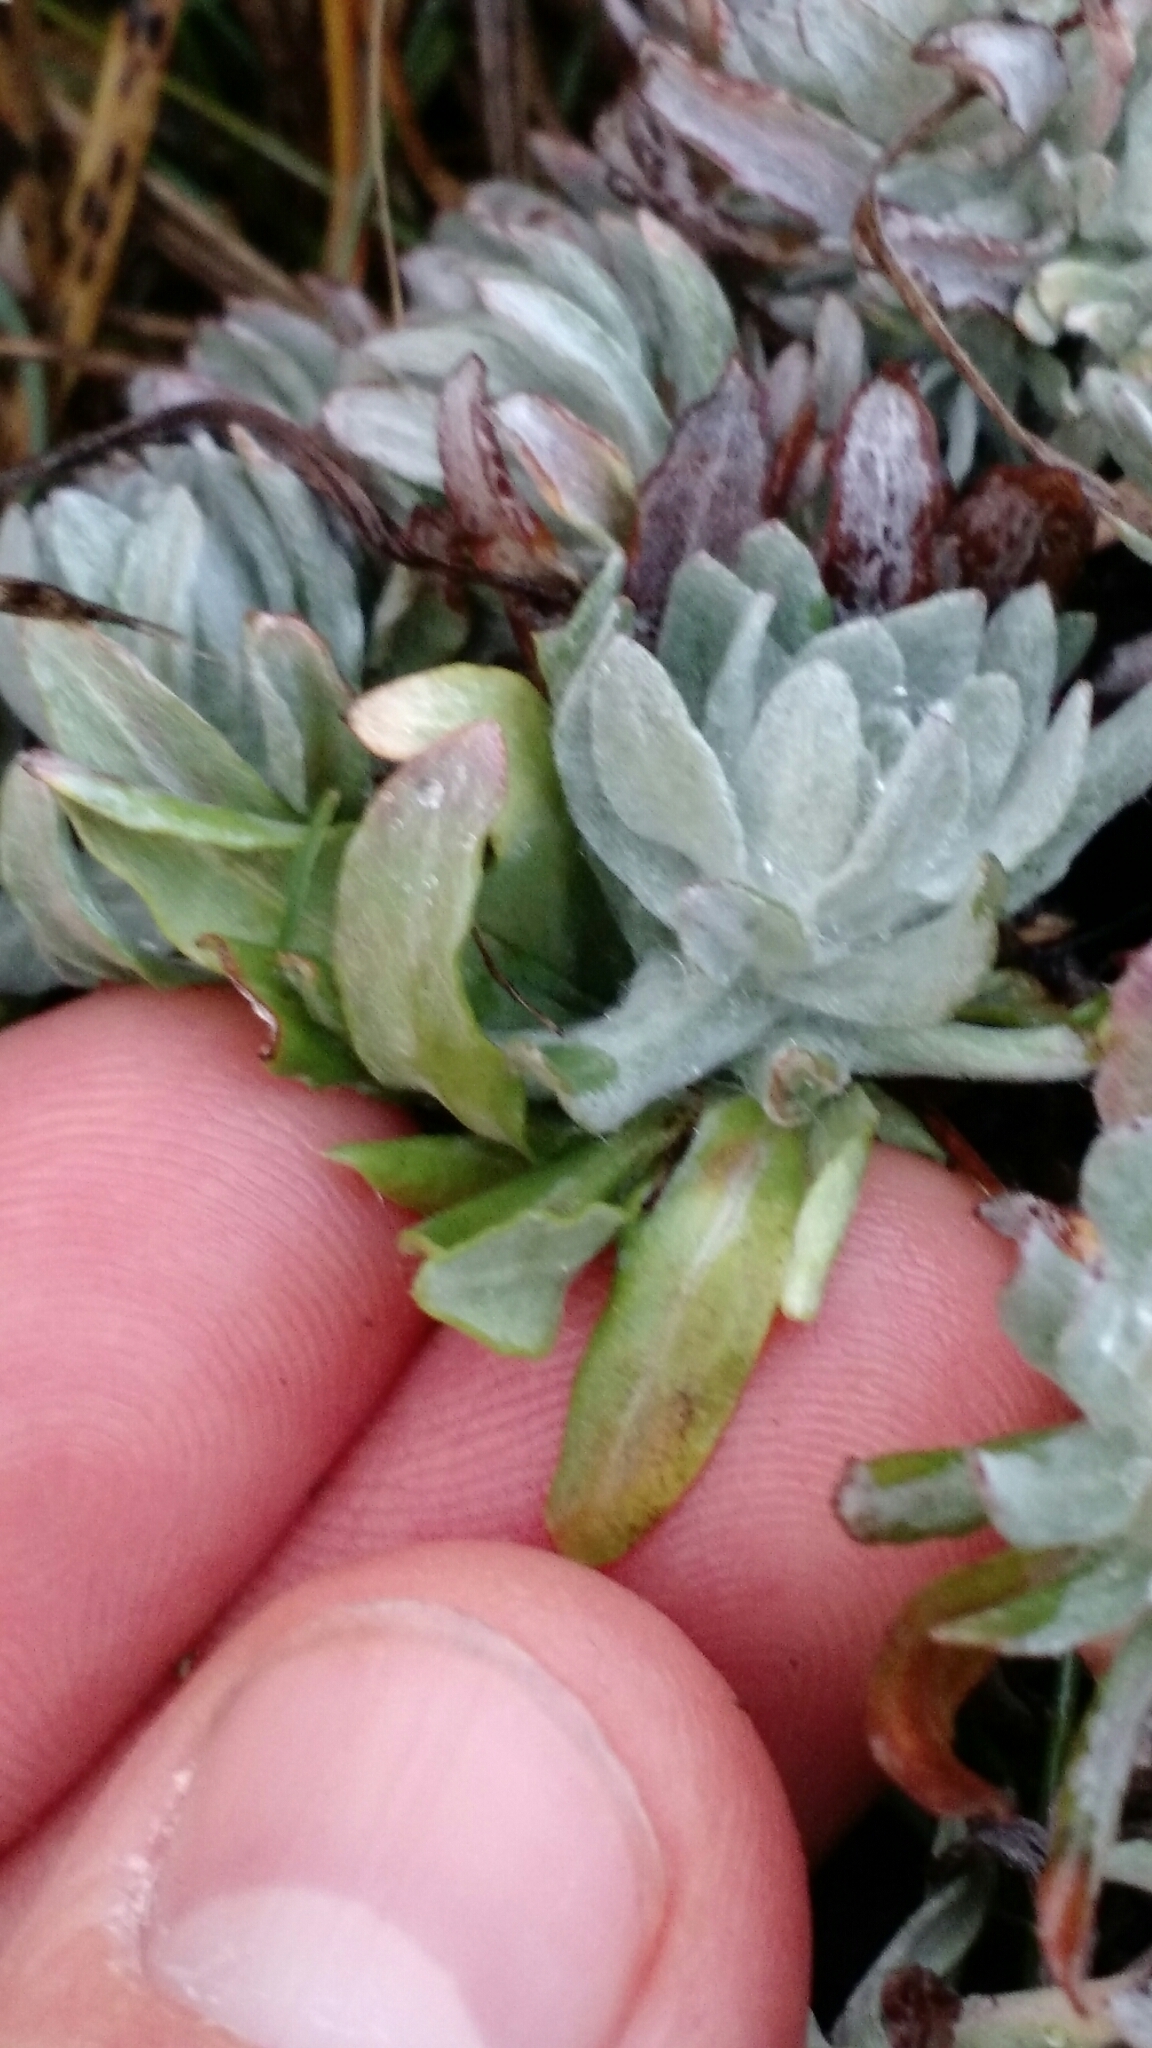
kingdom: Plantae
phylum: Tracheophyta
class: Magnoliopsida
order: Asterales
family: Asteraceae
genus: Diaperia
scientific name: Diaperia prolifera
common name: Big-head rabbit-tobacco
